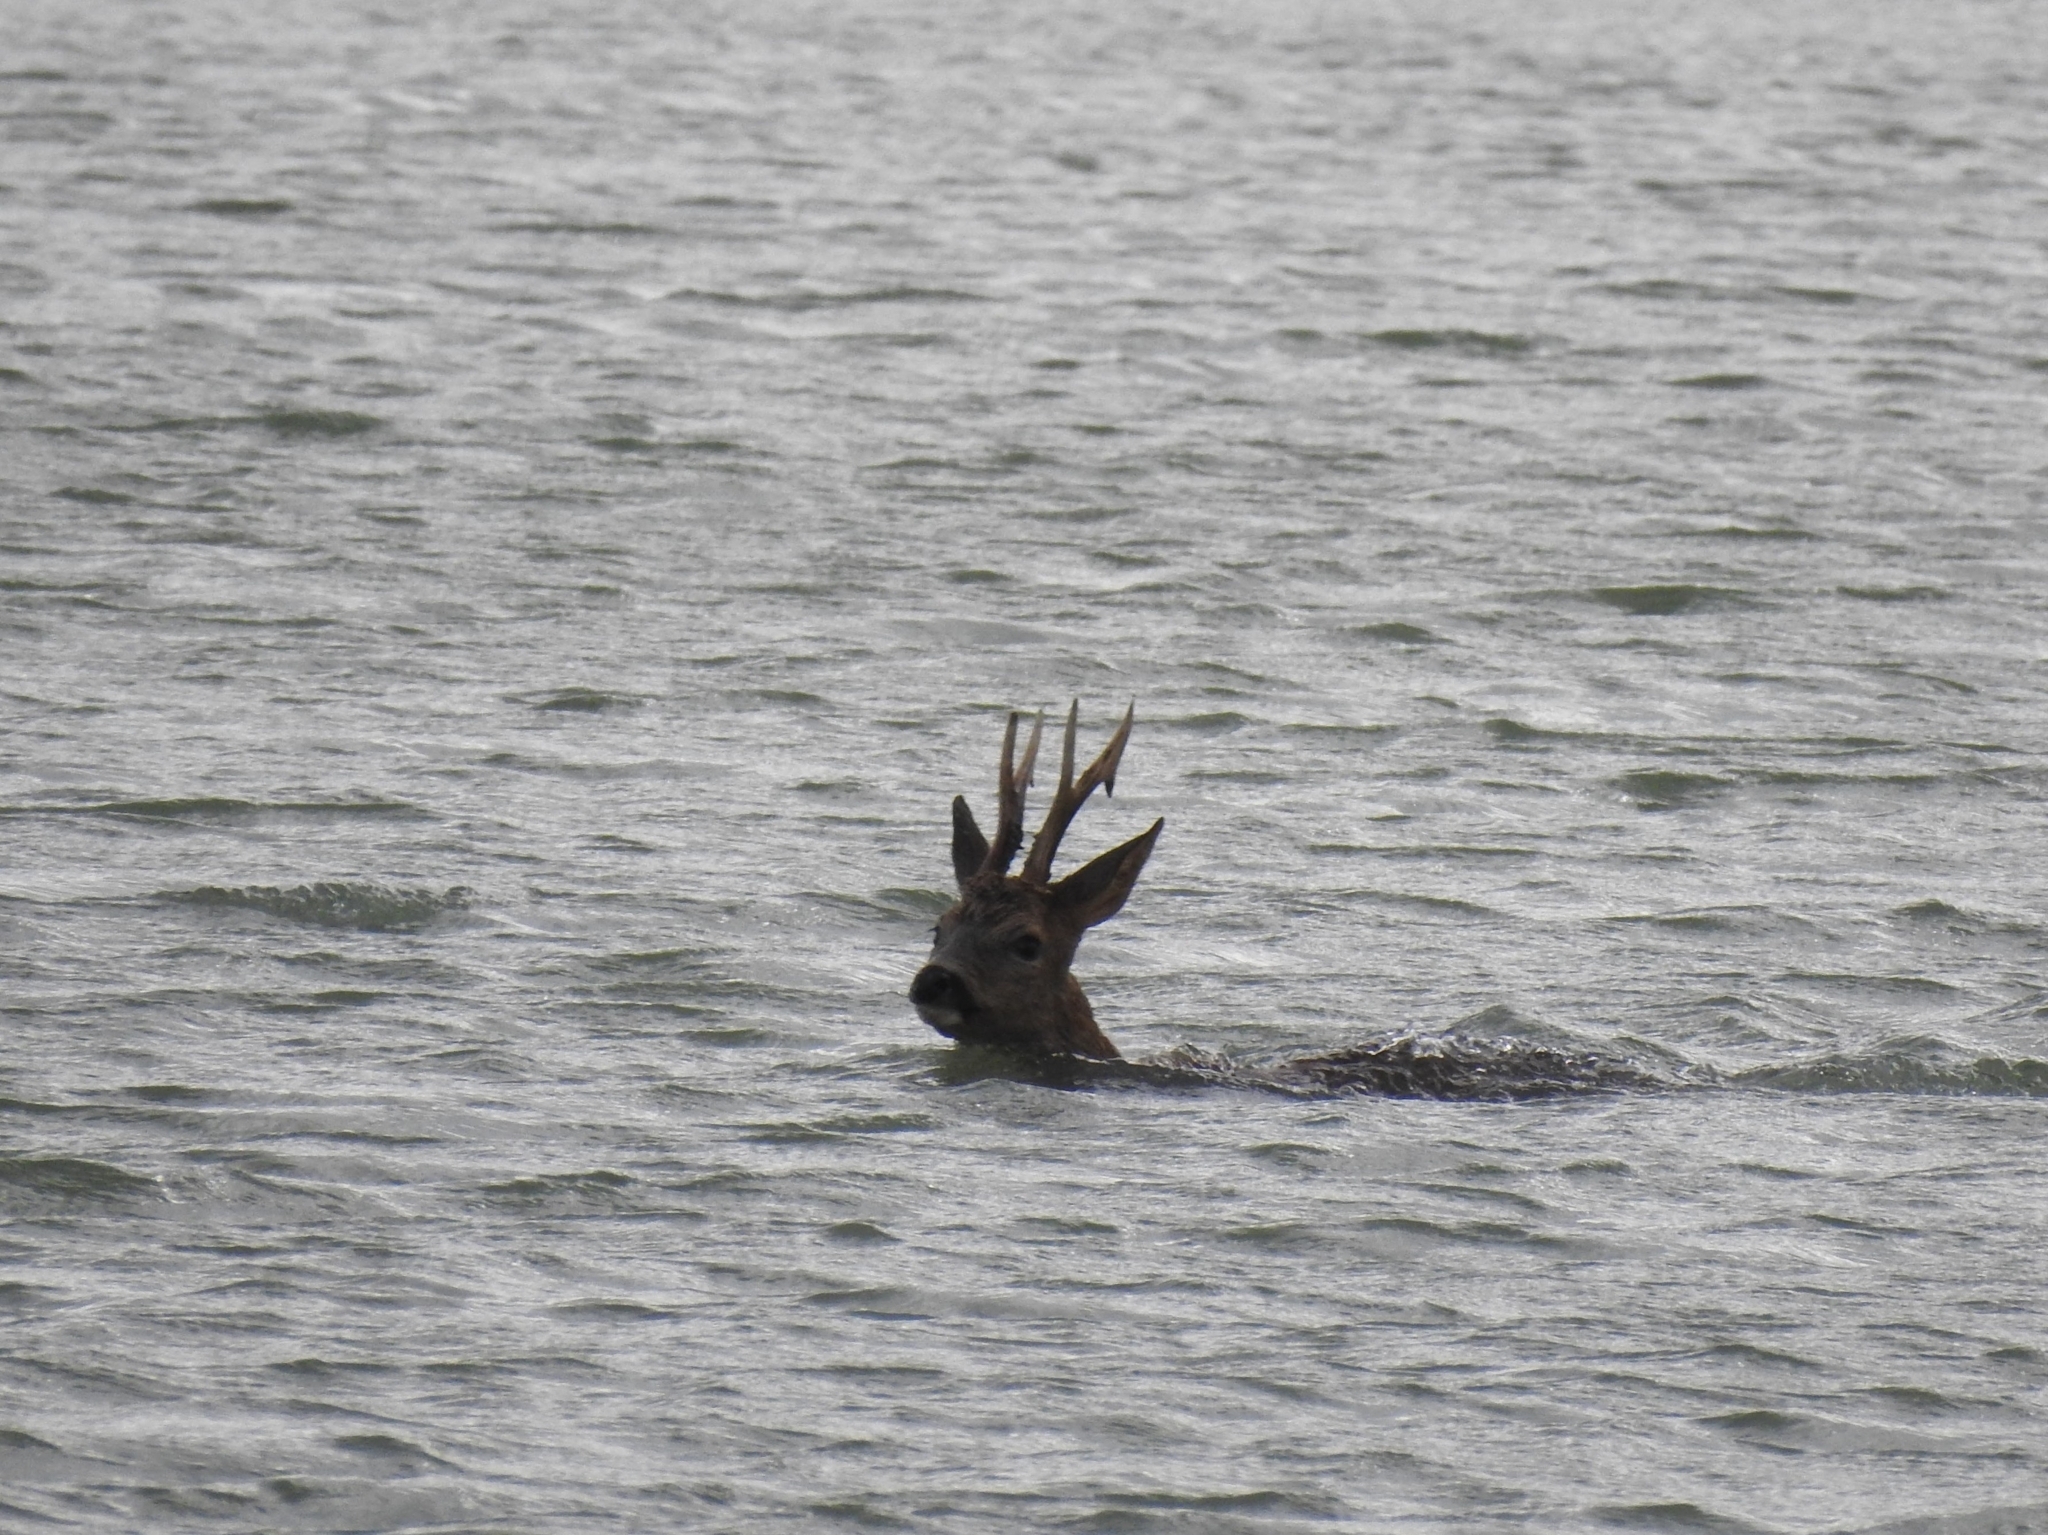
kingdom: Animalia
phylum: Chordata
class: Mammalia
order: Artiodactyla
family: Cervidae
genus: Capreolus
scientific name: Capreolus capreolus
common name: Western roe deer
